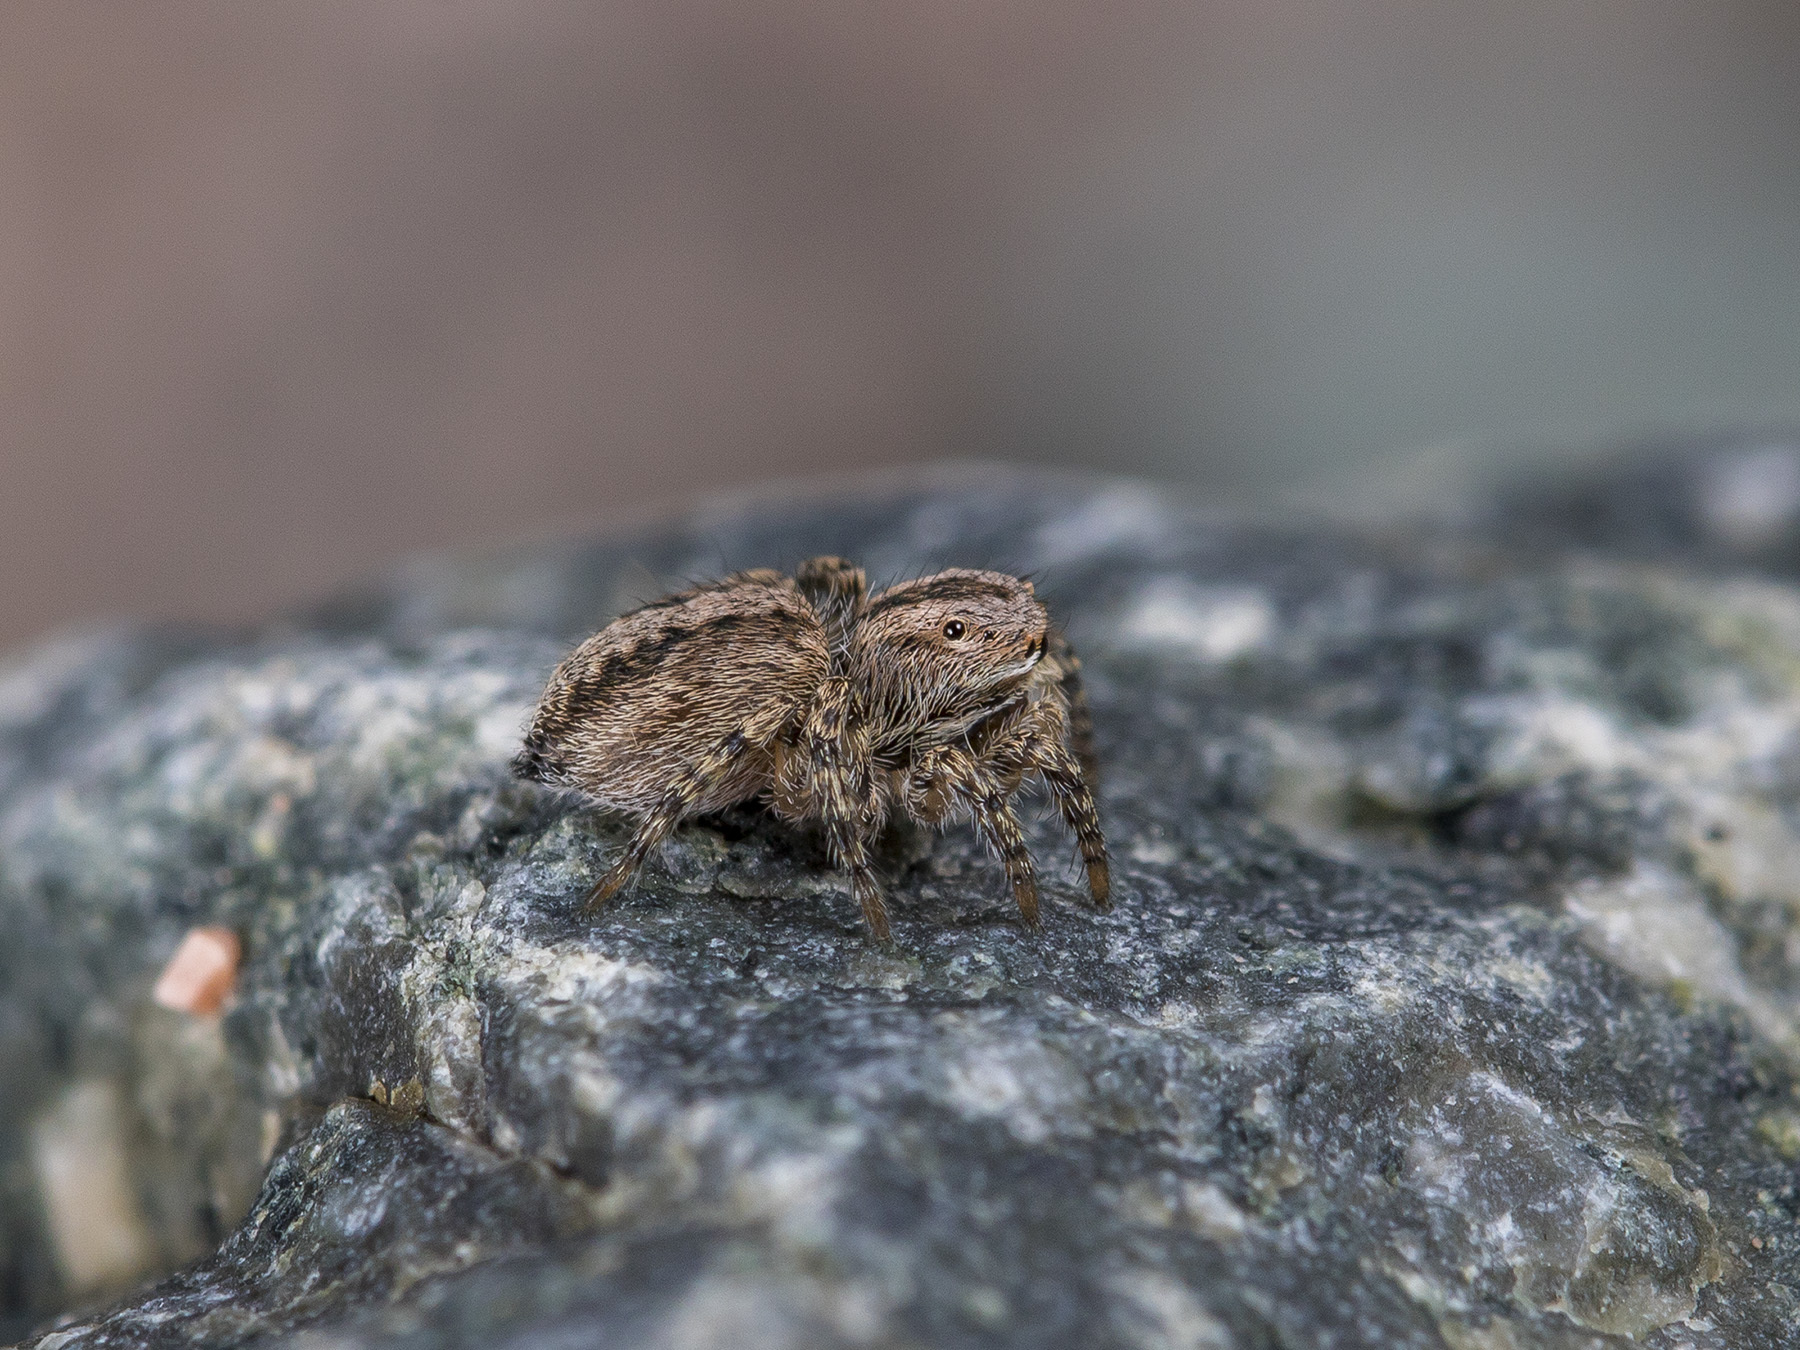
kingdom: Animalia
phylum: Arthropoda
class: Arachnida
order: Araneae
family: Salticidae
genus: Aelurillus
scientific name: Aelurillus v-insignitus
